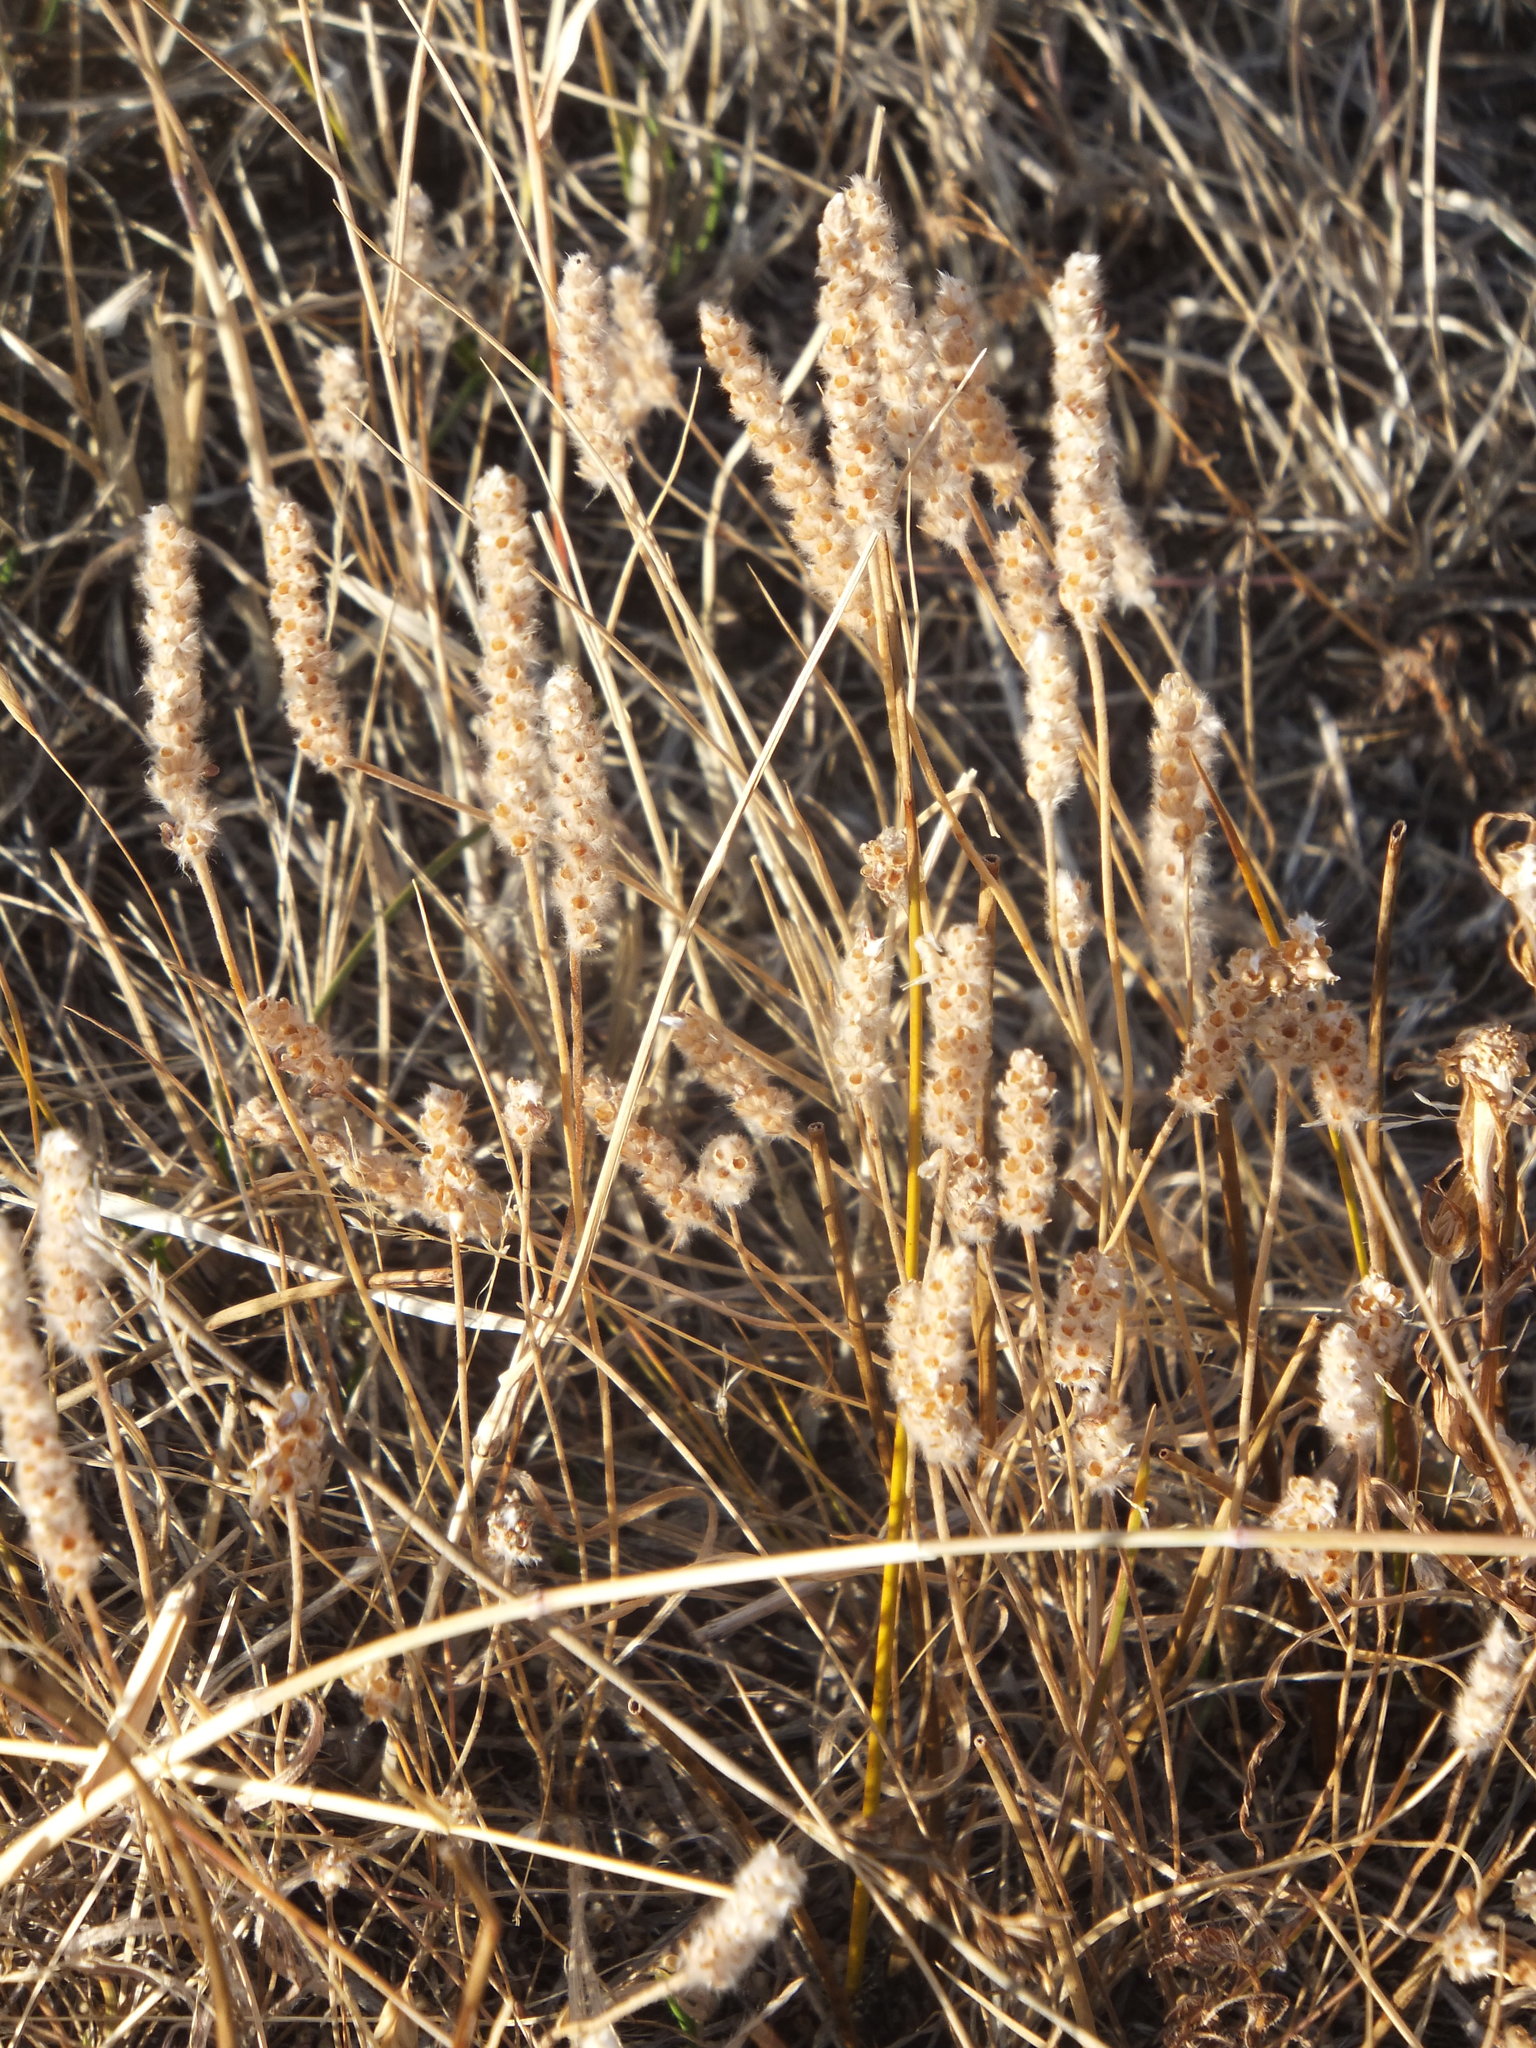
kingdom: Plantae
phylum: Tracheophyta
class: Magnoliopsida
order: Lamiales
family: Plantaginaceae
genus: Plantago
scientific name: Plantago patagonica
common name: Patagonia indian-wheat
